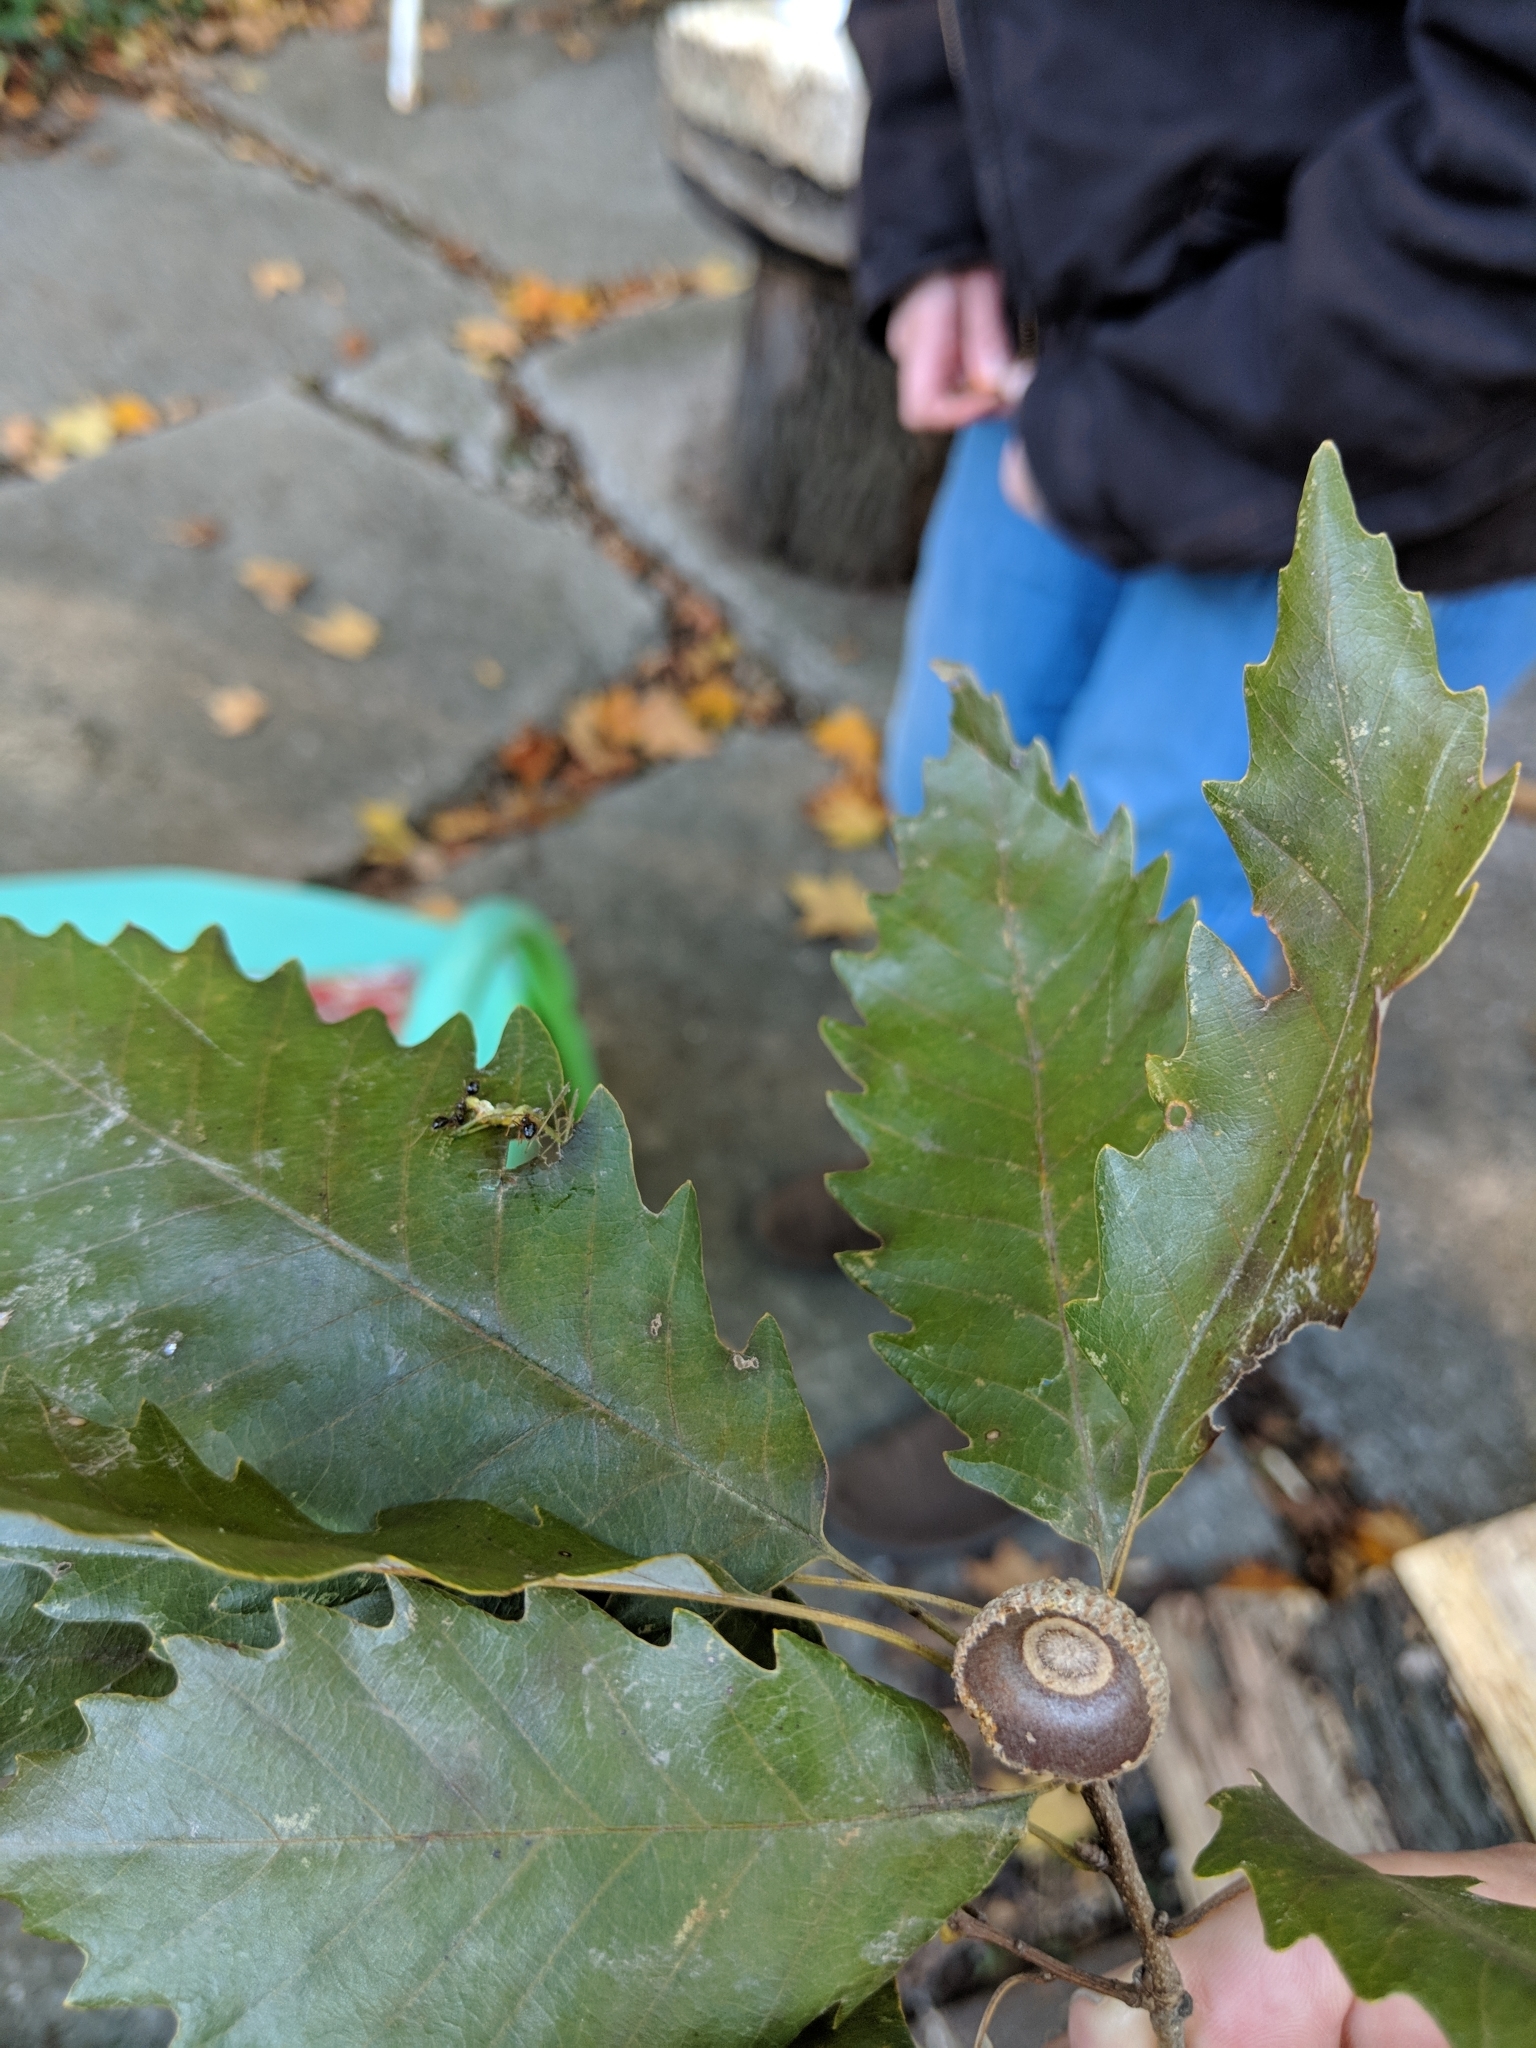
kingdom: Plantae
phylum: Tracheophyta
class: Magnoliopsida
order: Fagales
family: Fagaceae
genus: Quercus
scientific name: Quercus muehlenbergii
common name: Chinkapin oak
